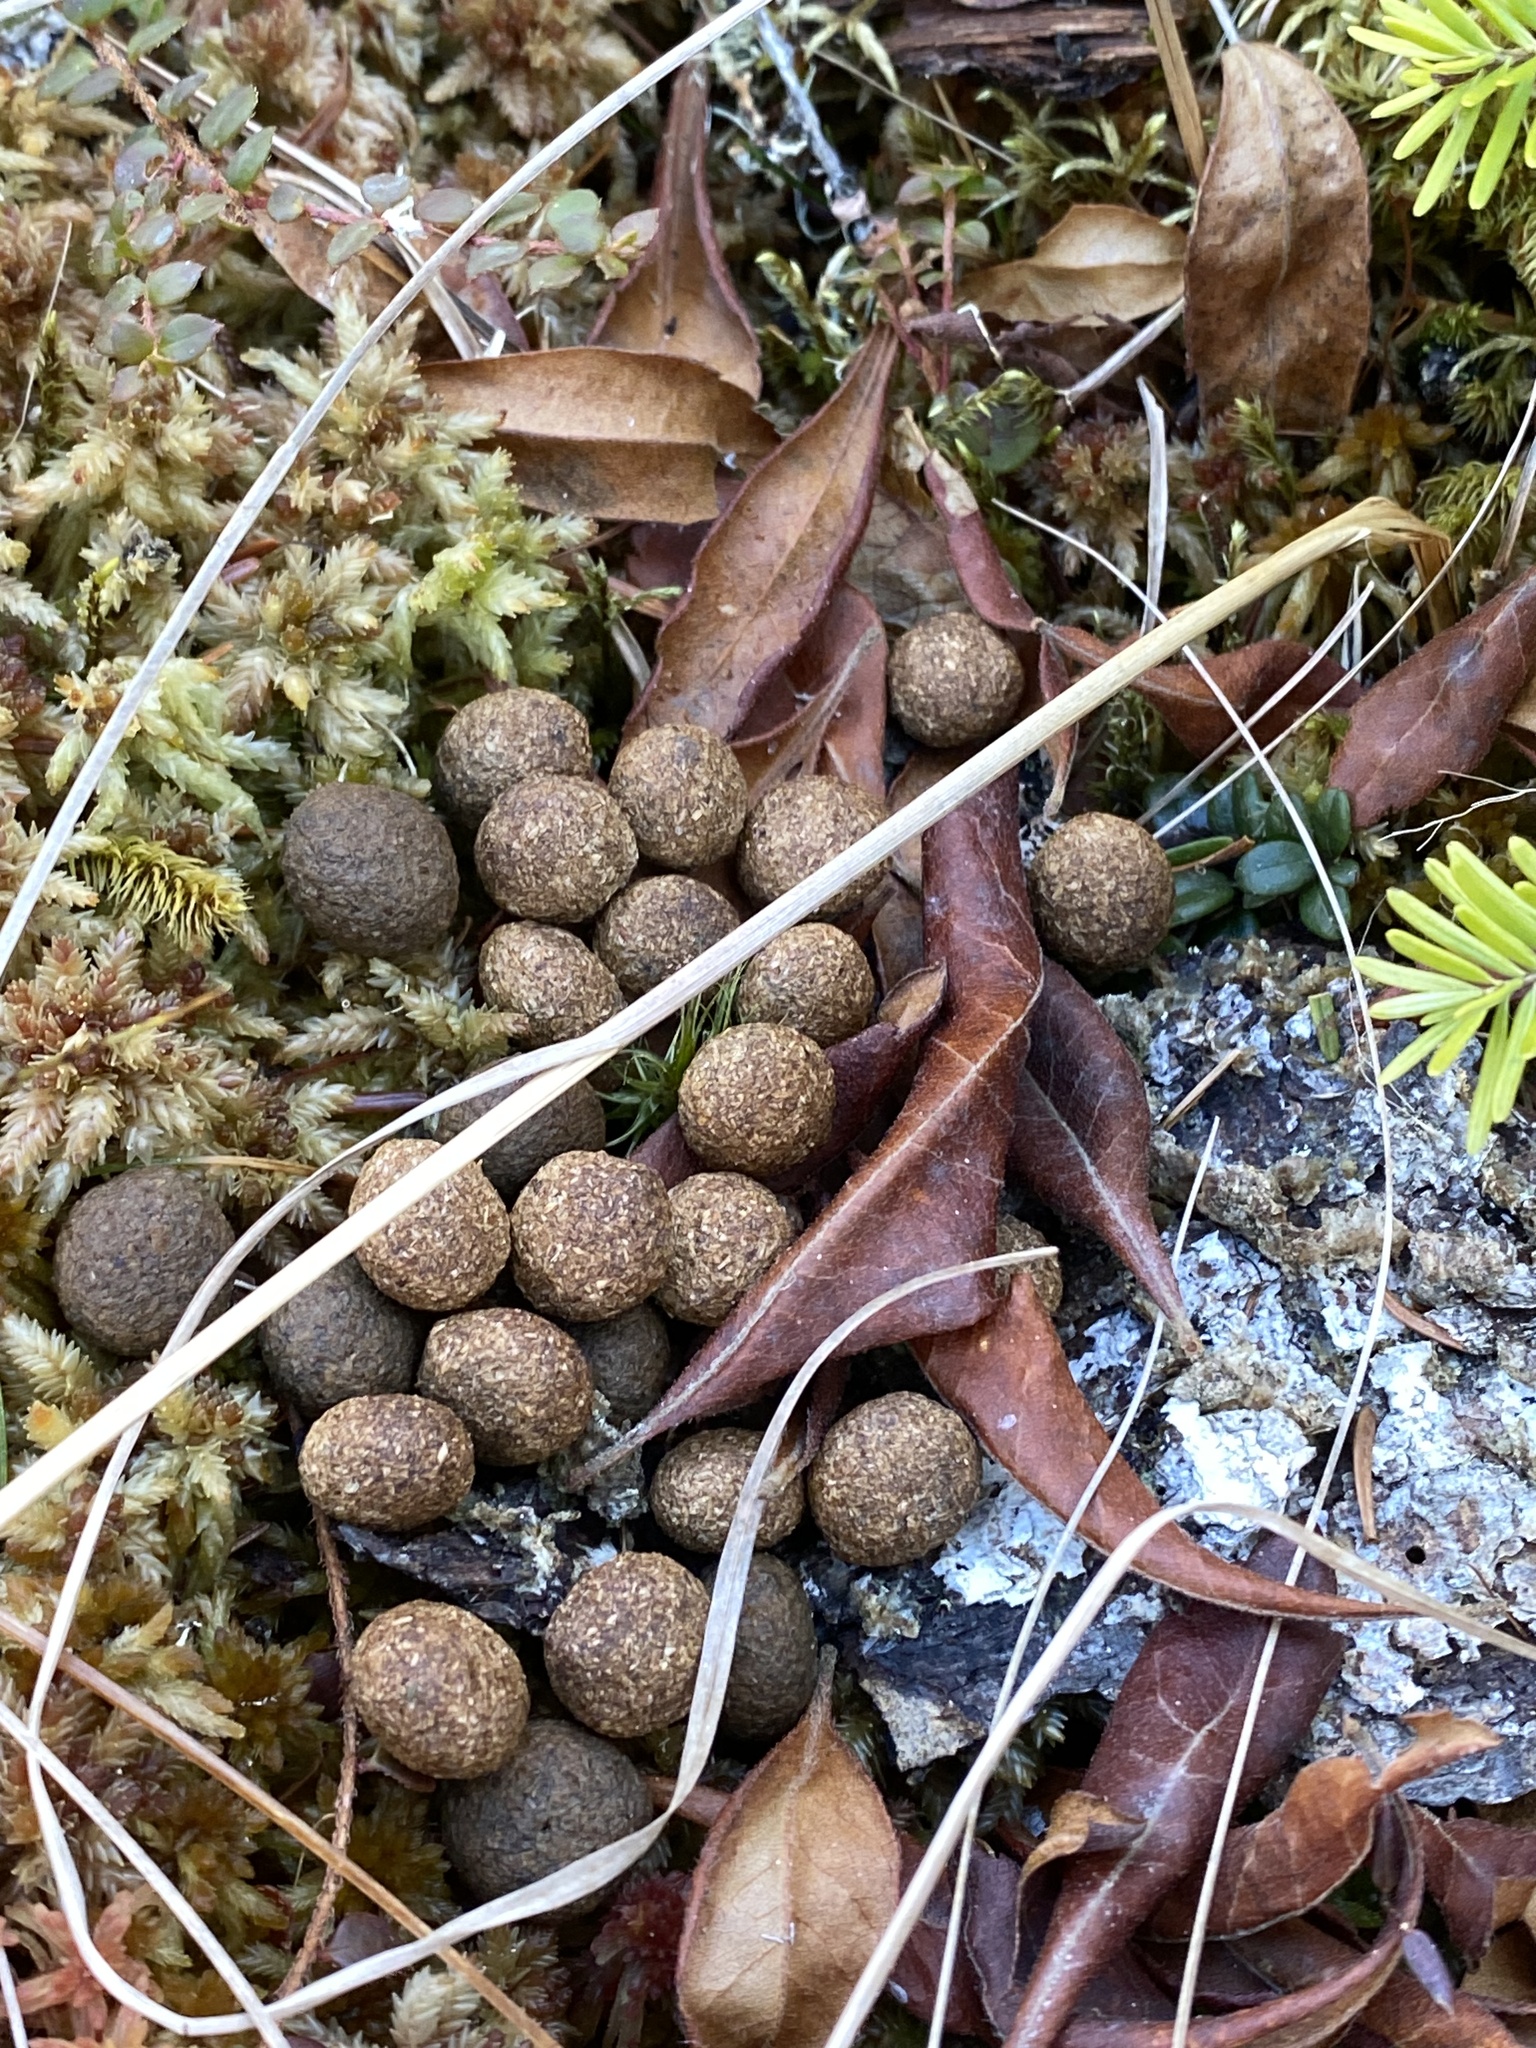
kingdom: Animalia
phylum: Chordata
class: Mammalia
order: Lagomorpha
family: Leporidae
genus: Lepus
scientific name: Lepus americanus
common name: Snowshoe hare
